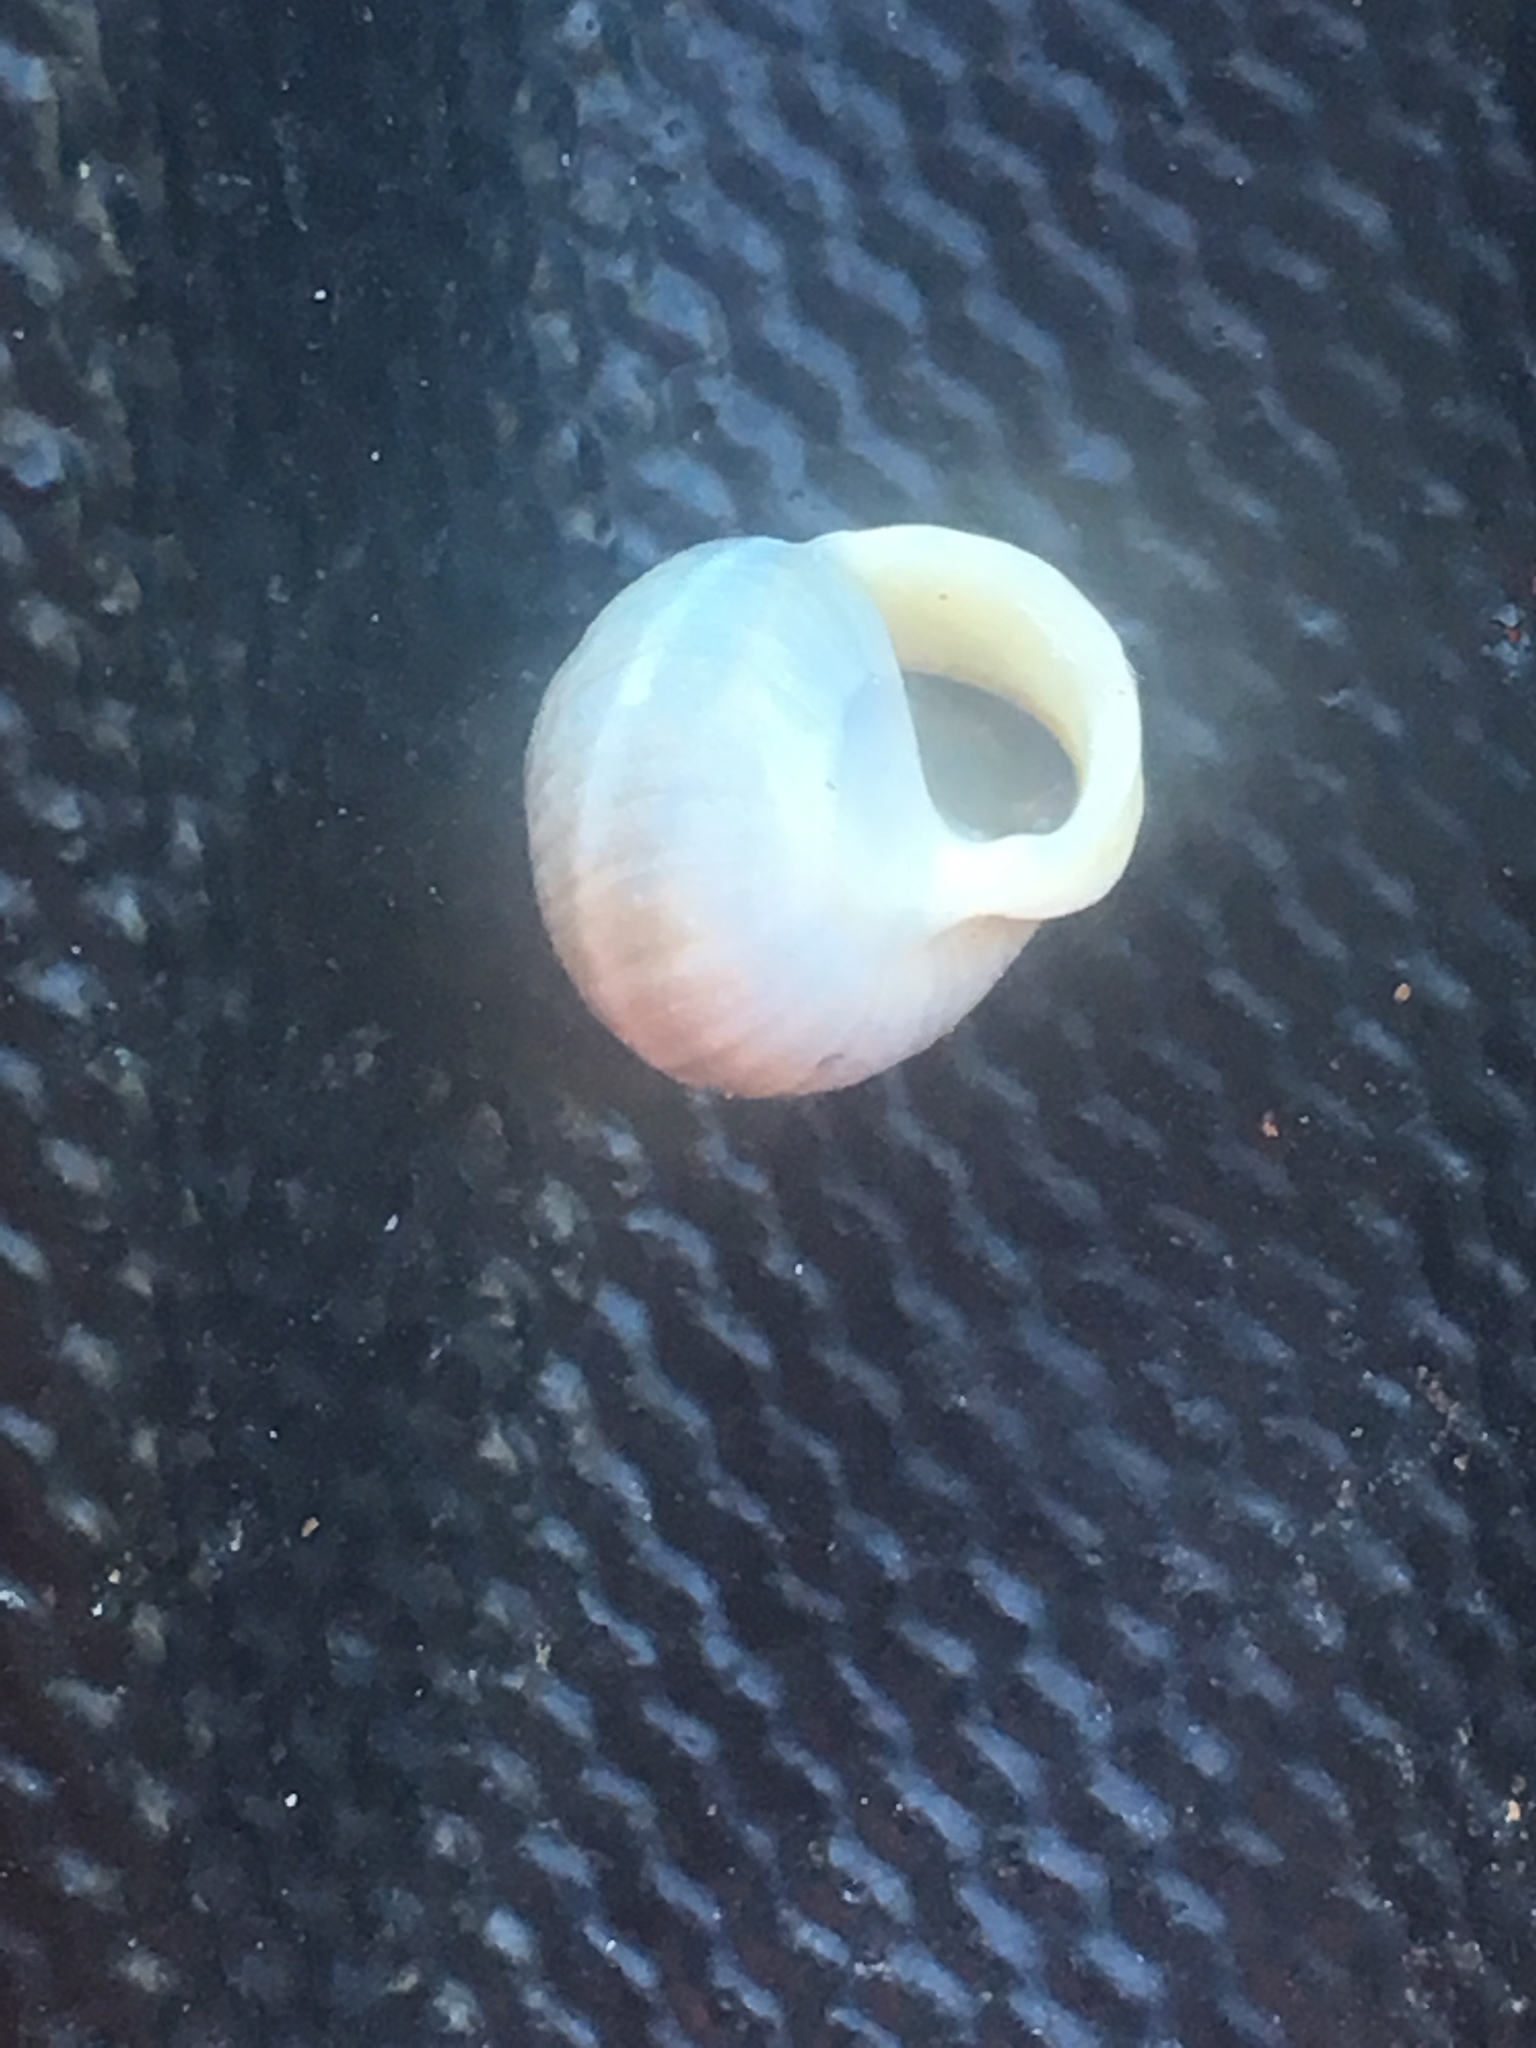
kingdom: Animalia
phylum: Mollusca
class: Gastropoda
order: Cycloneritida
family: Helicinidae
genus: Helicina
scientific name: Helicina orbiculata
